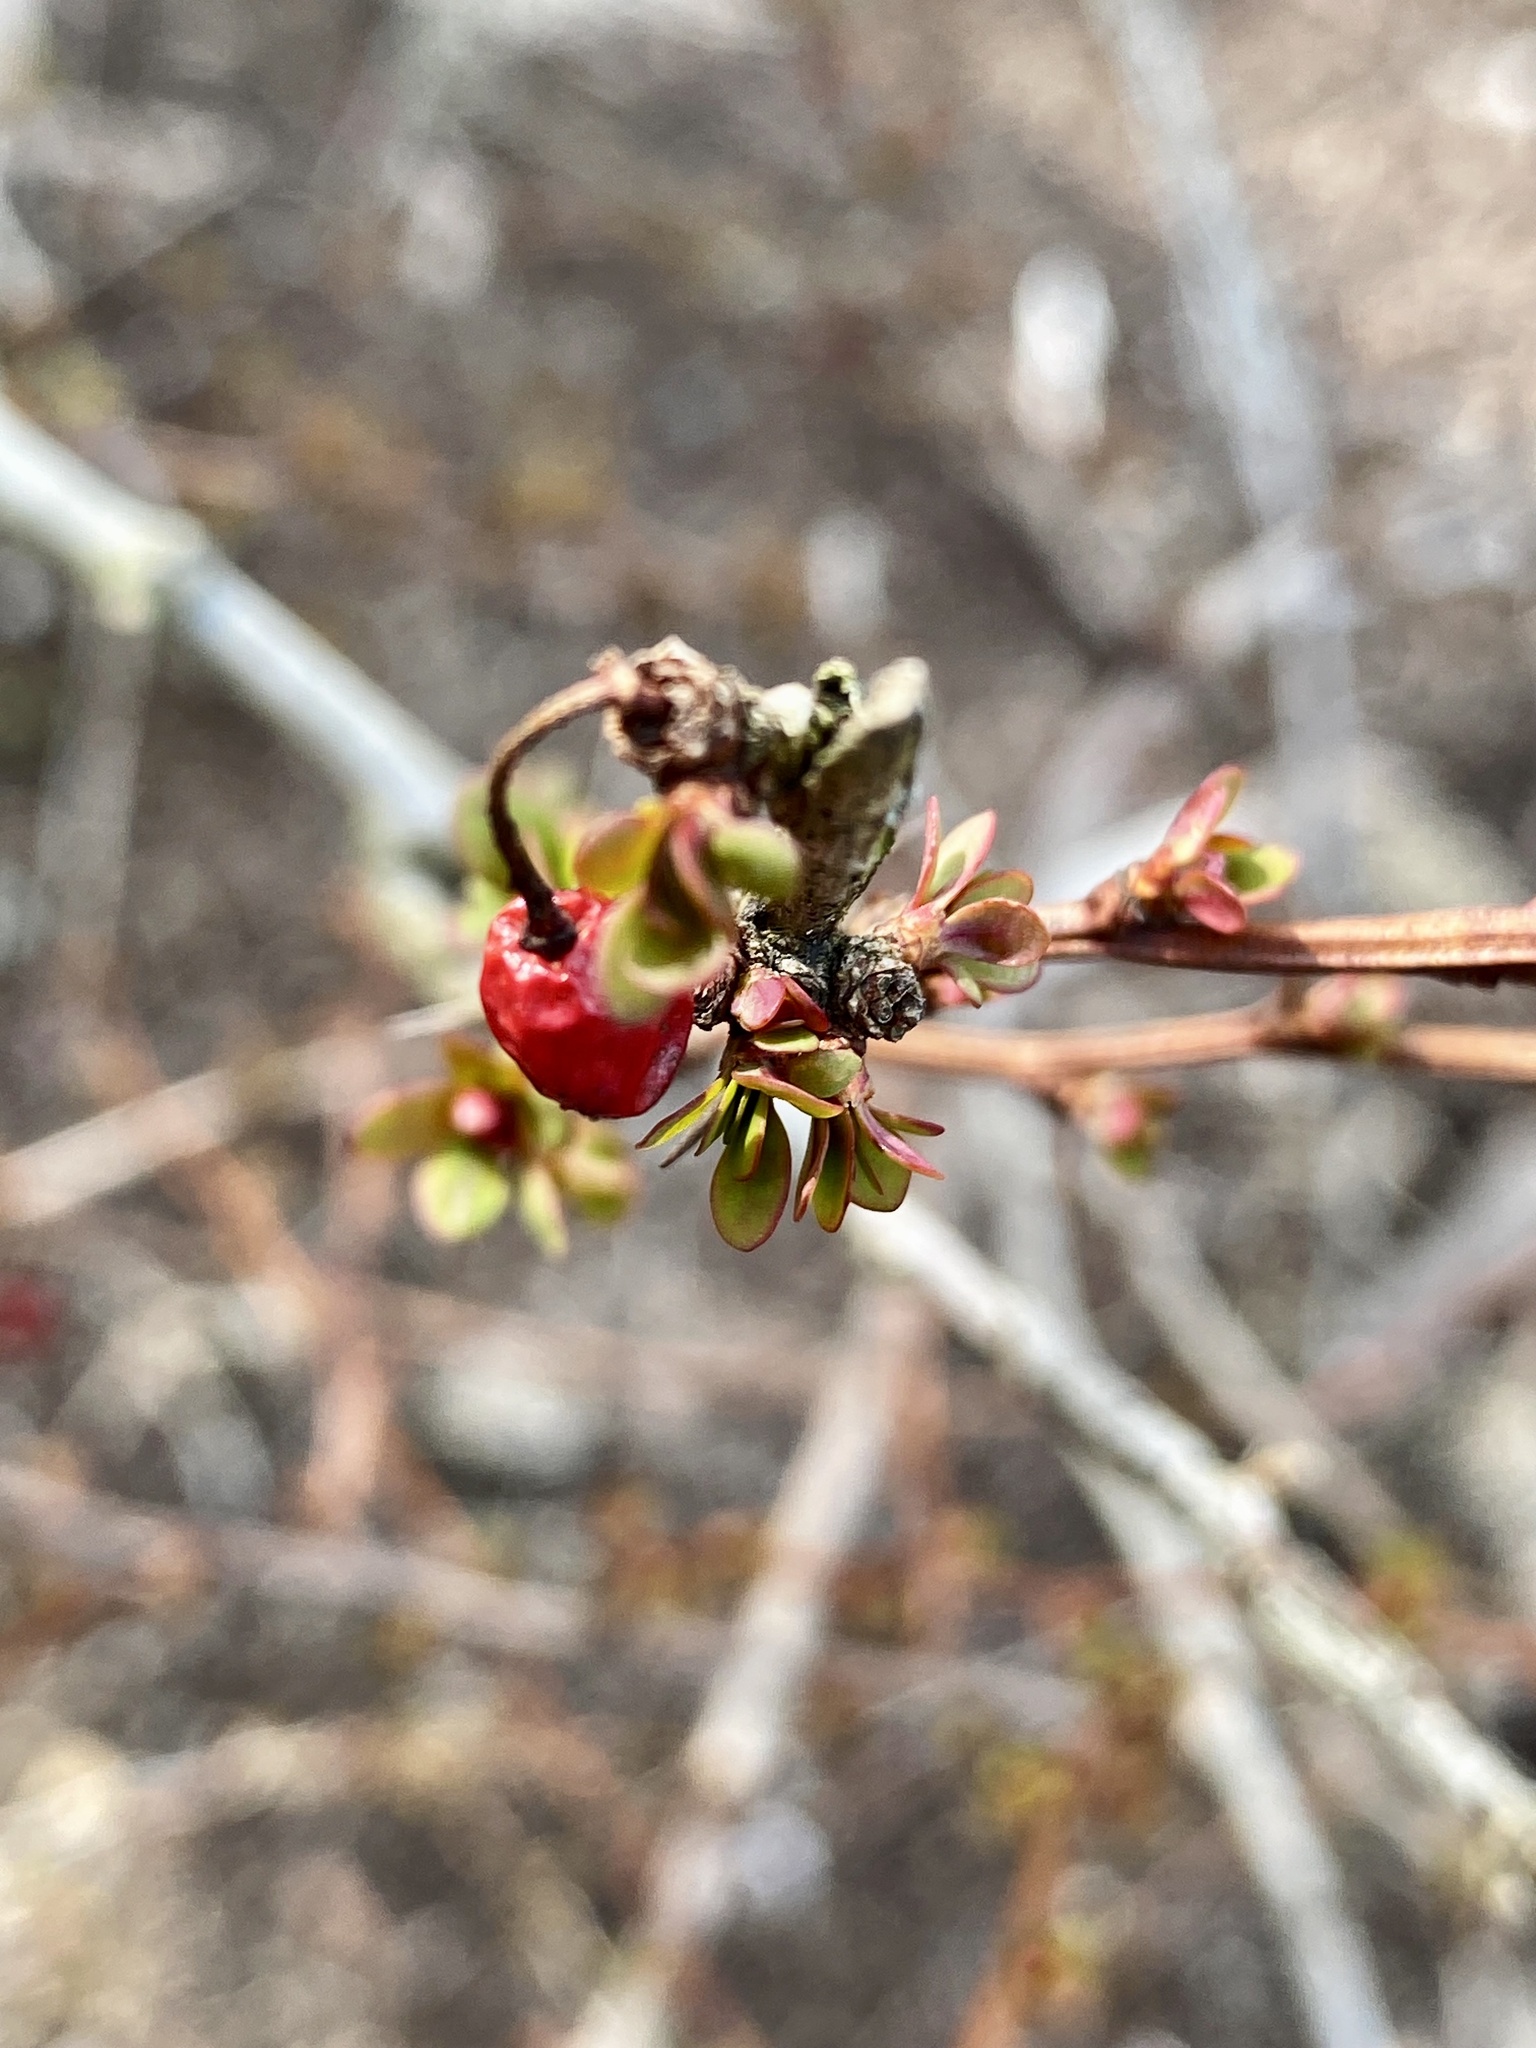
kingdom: Plantae
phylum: Tracheophyta
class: Magnoliopsida
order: Ranunculales
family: Berberidaceae
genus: Berberis
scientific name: Berberis thunbergii
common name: Japanese barberry
